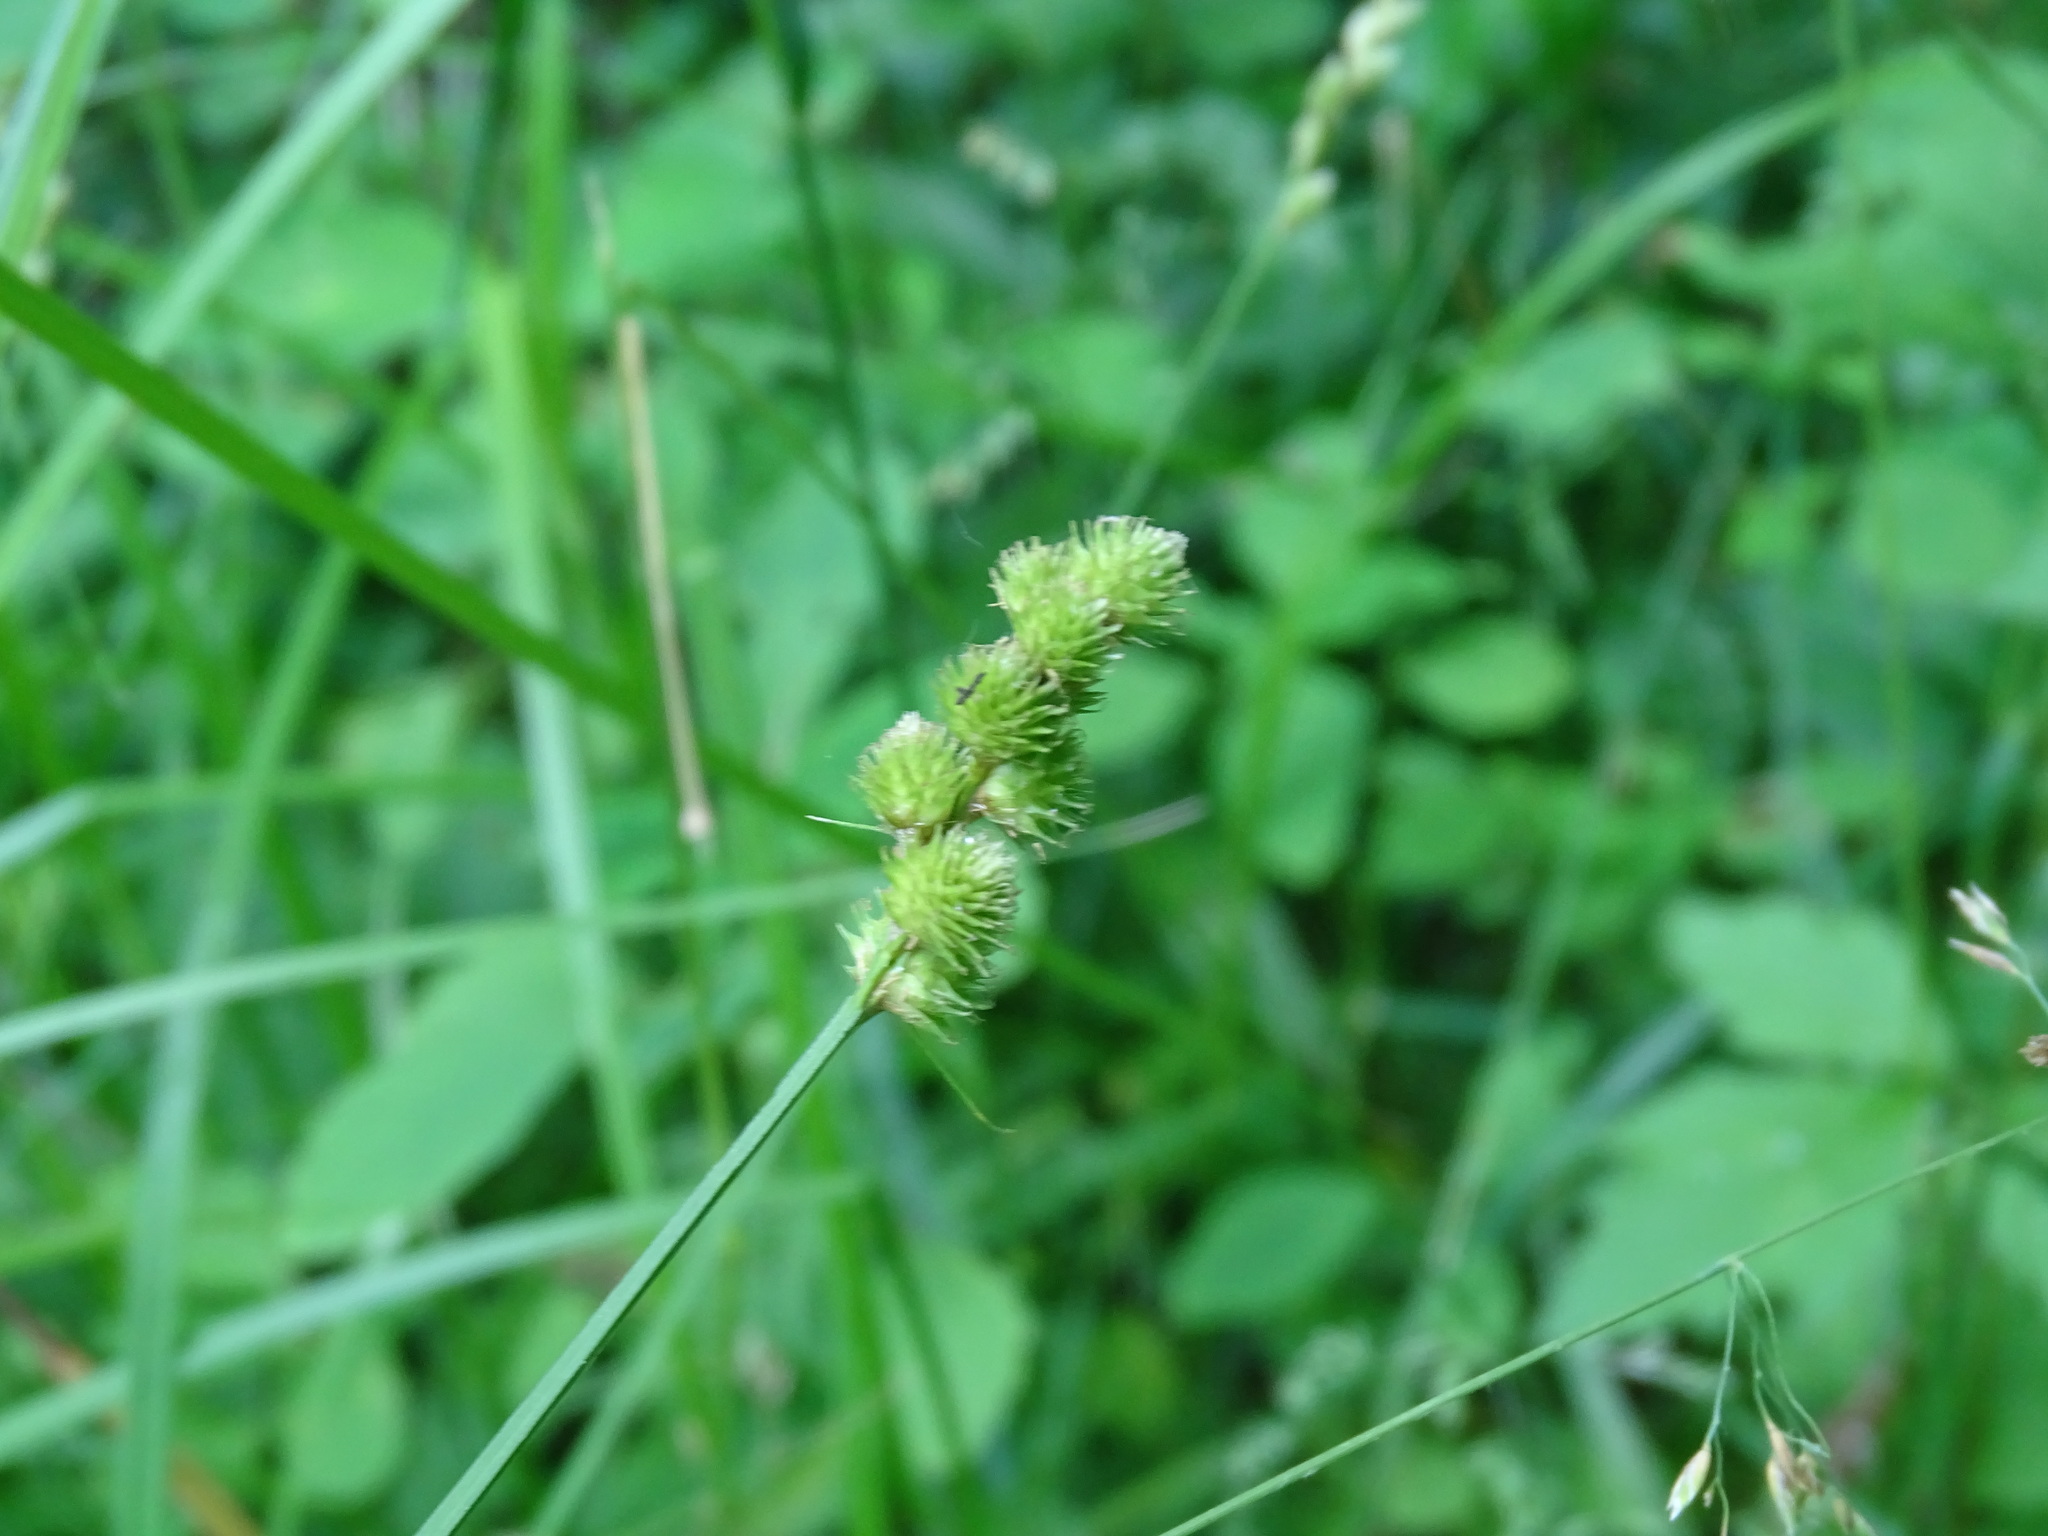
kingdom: Plantae
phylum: Tracheophyta
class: Liliopsida
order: Poales
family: Cyperaceae
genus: Carex
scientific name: Carex cristatella
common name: Crested oval sedge
